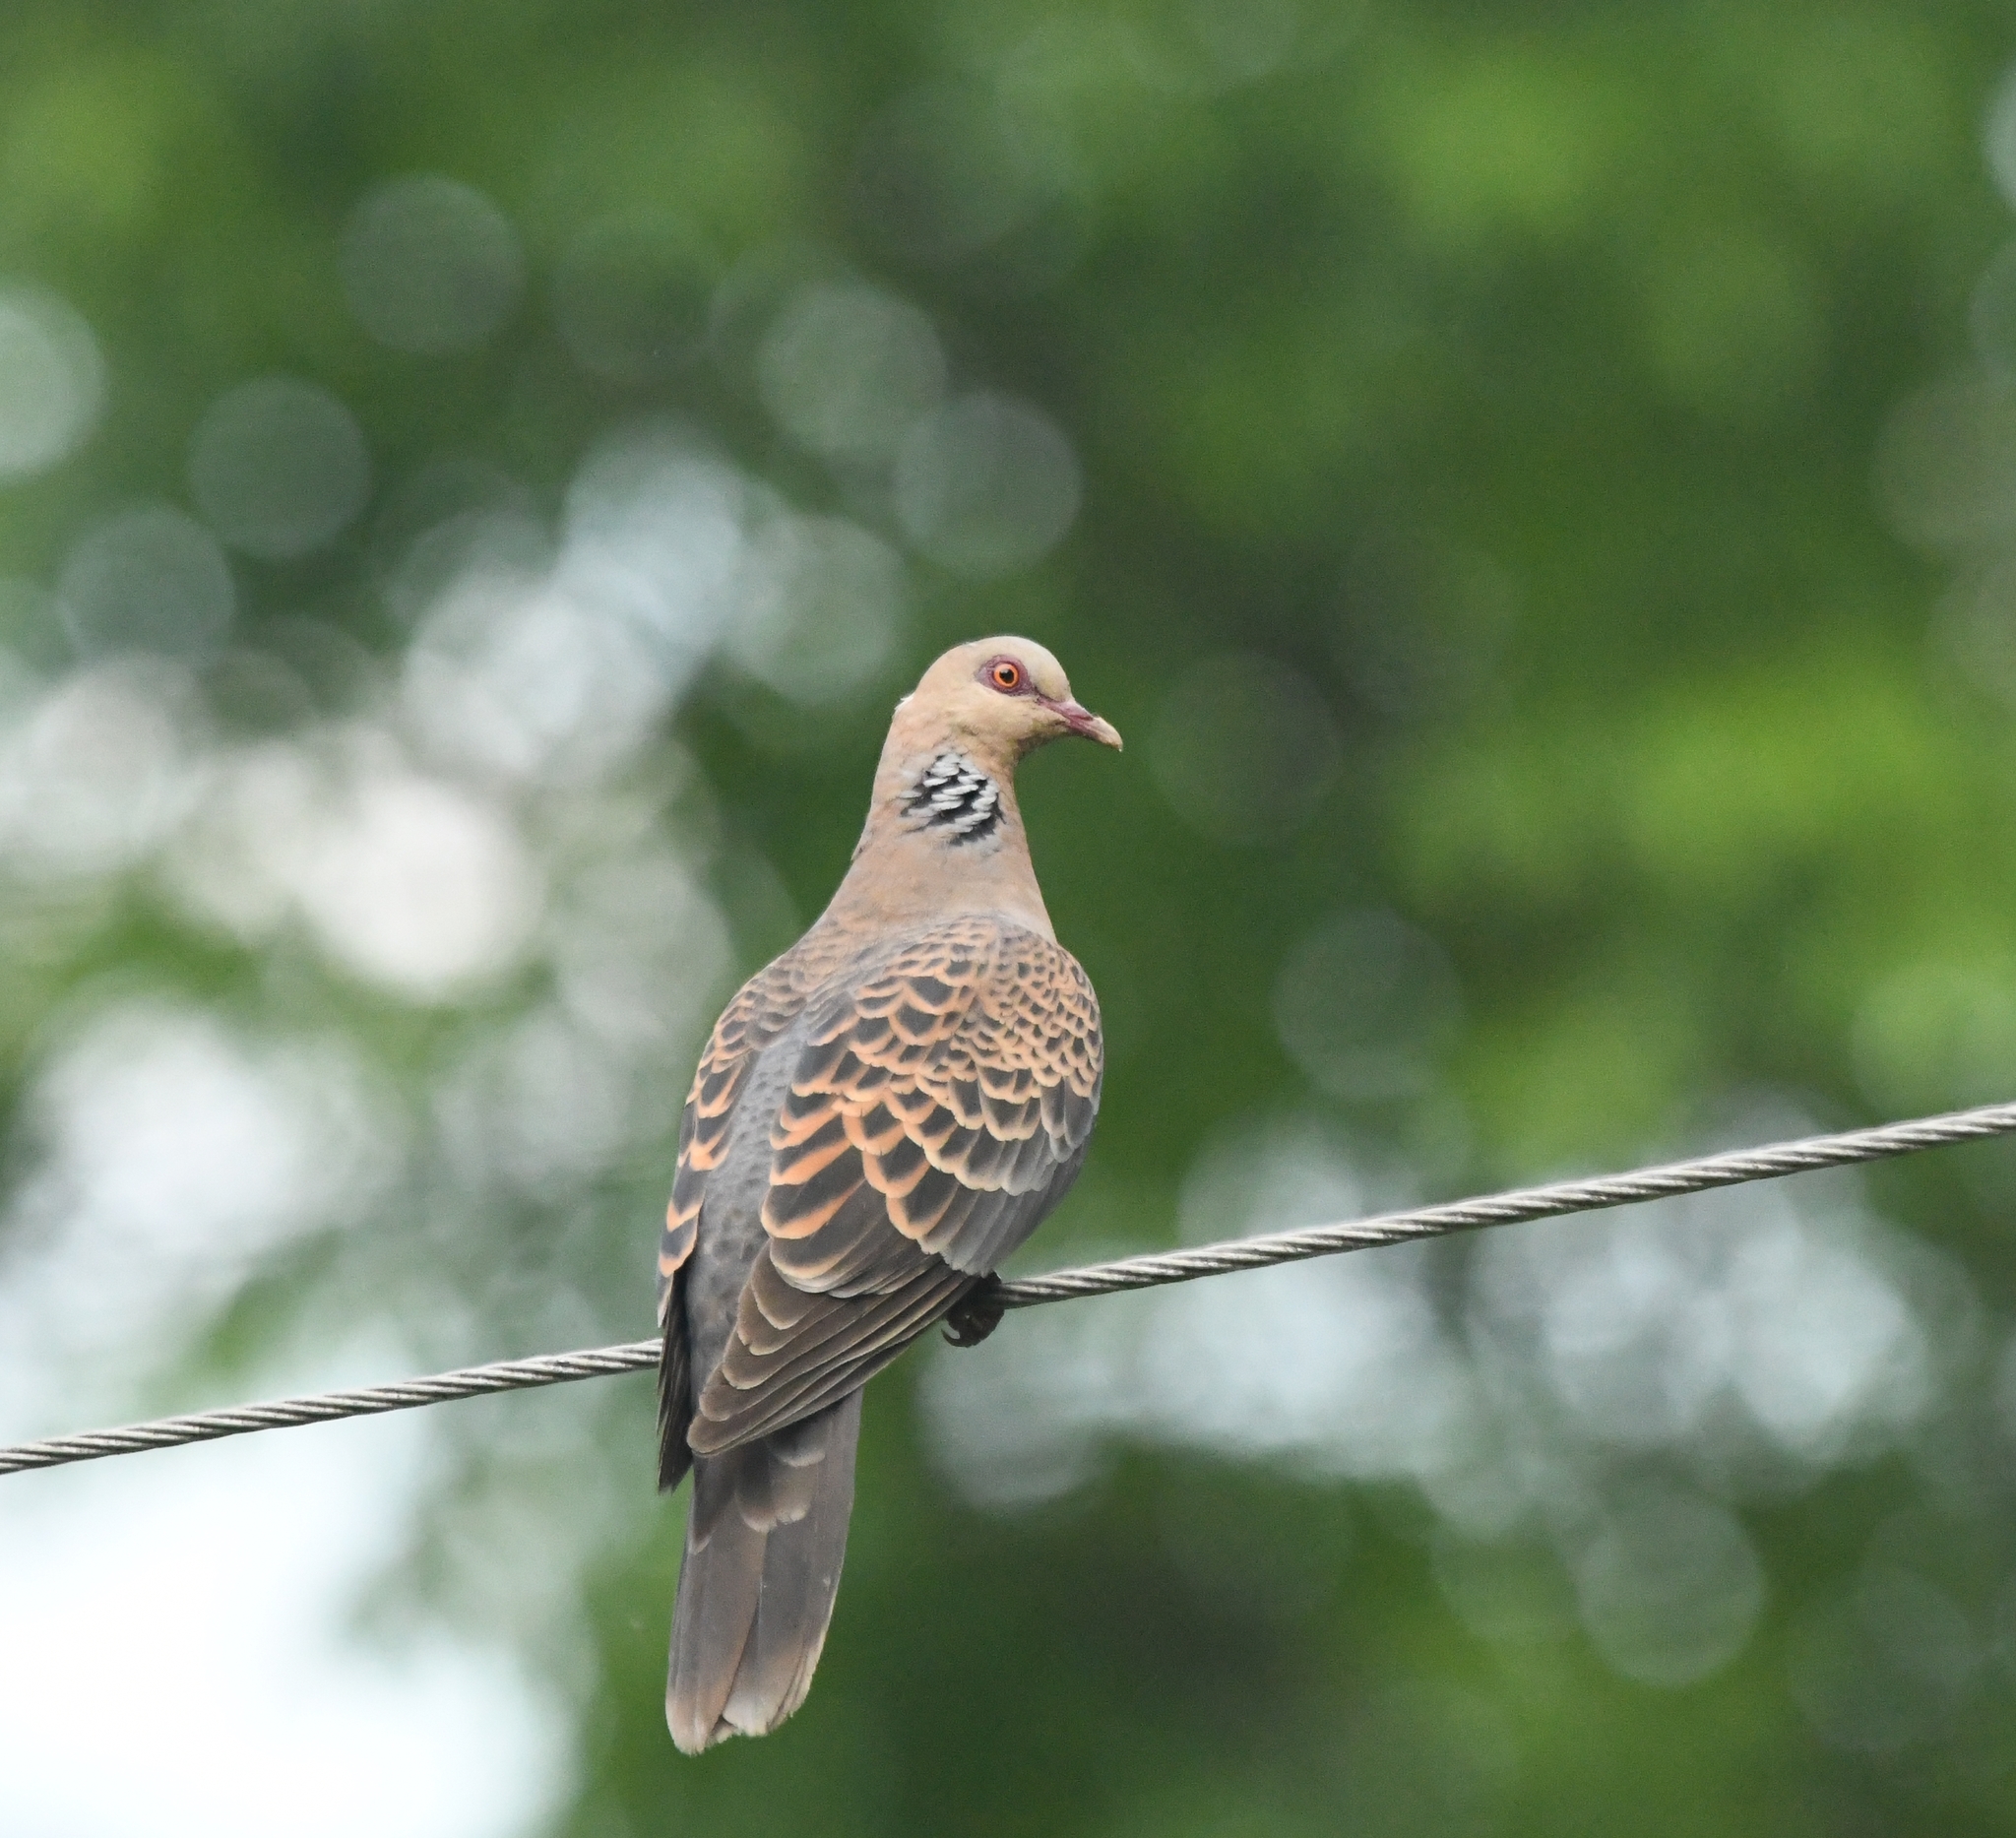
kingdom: Animalia
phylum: Chordata
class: Aves
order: Columbiformes
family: Columbidae
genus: Streptopelia
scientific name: Streptopelia orientalis
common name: Oriental turtle dove
